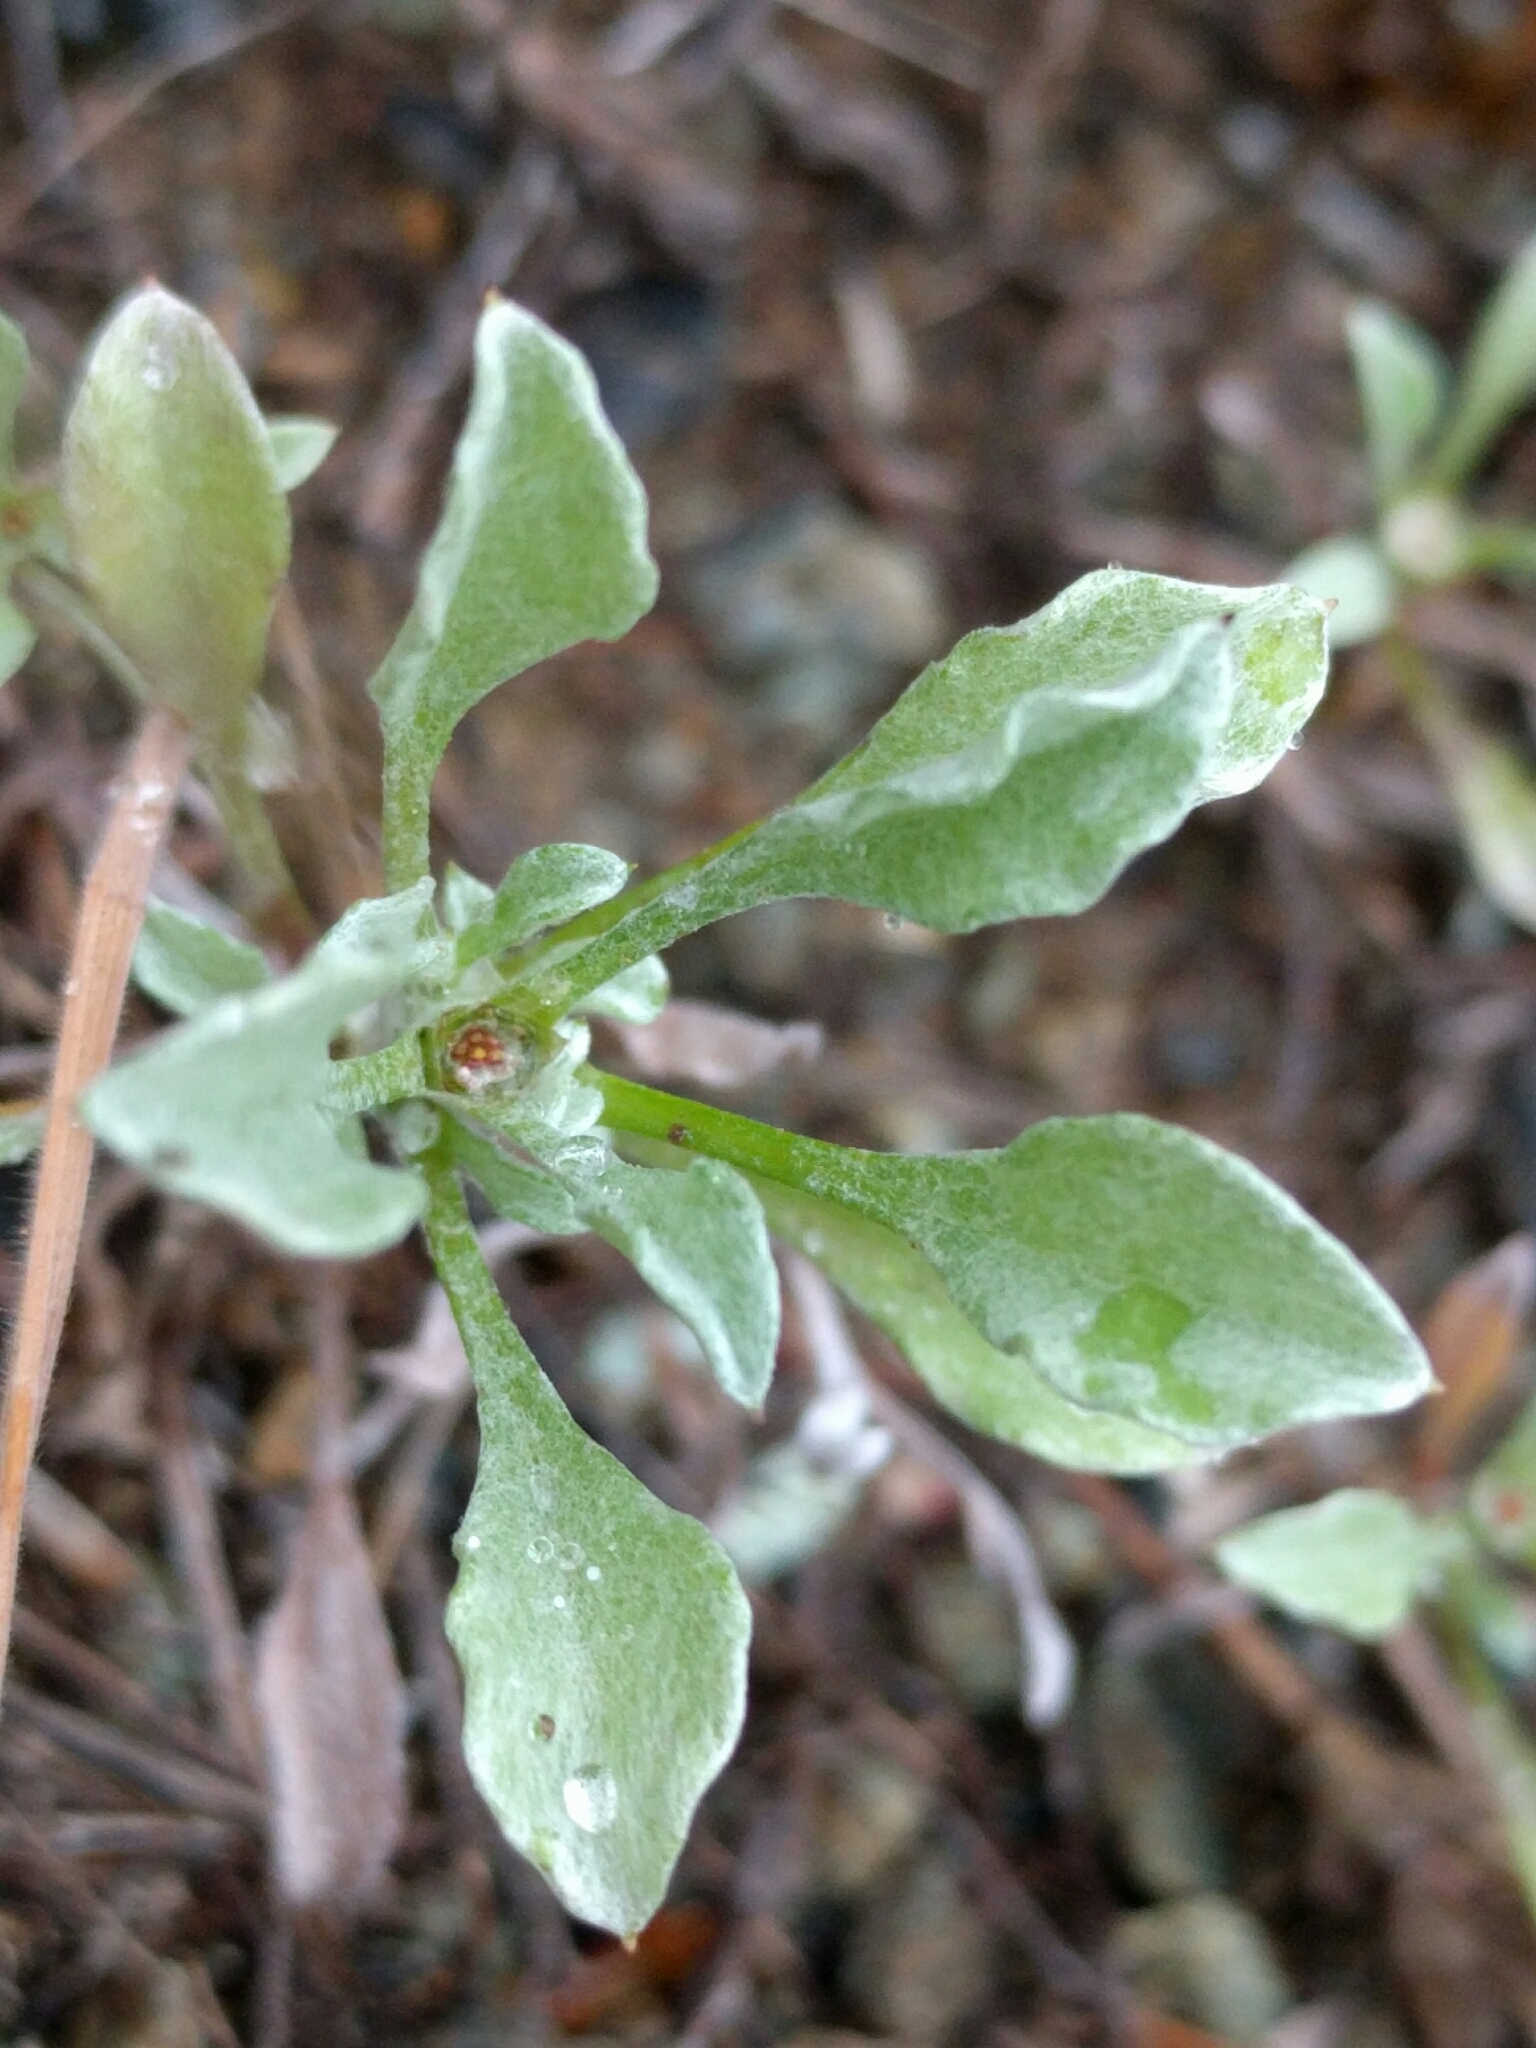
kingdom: Plantae
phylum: Tracheophyta
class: Magnoliopsida
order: Asterales
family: Asteraceae
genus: Hesperevax
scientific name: Hesperevax sparsiflora
